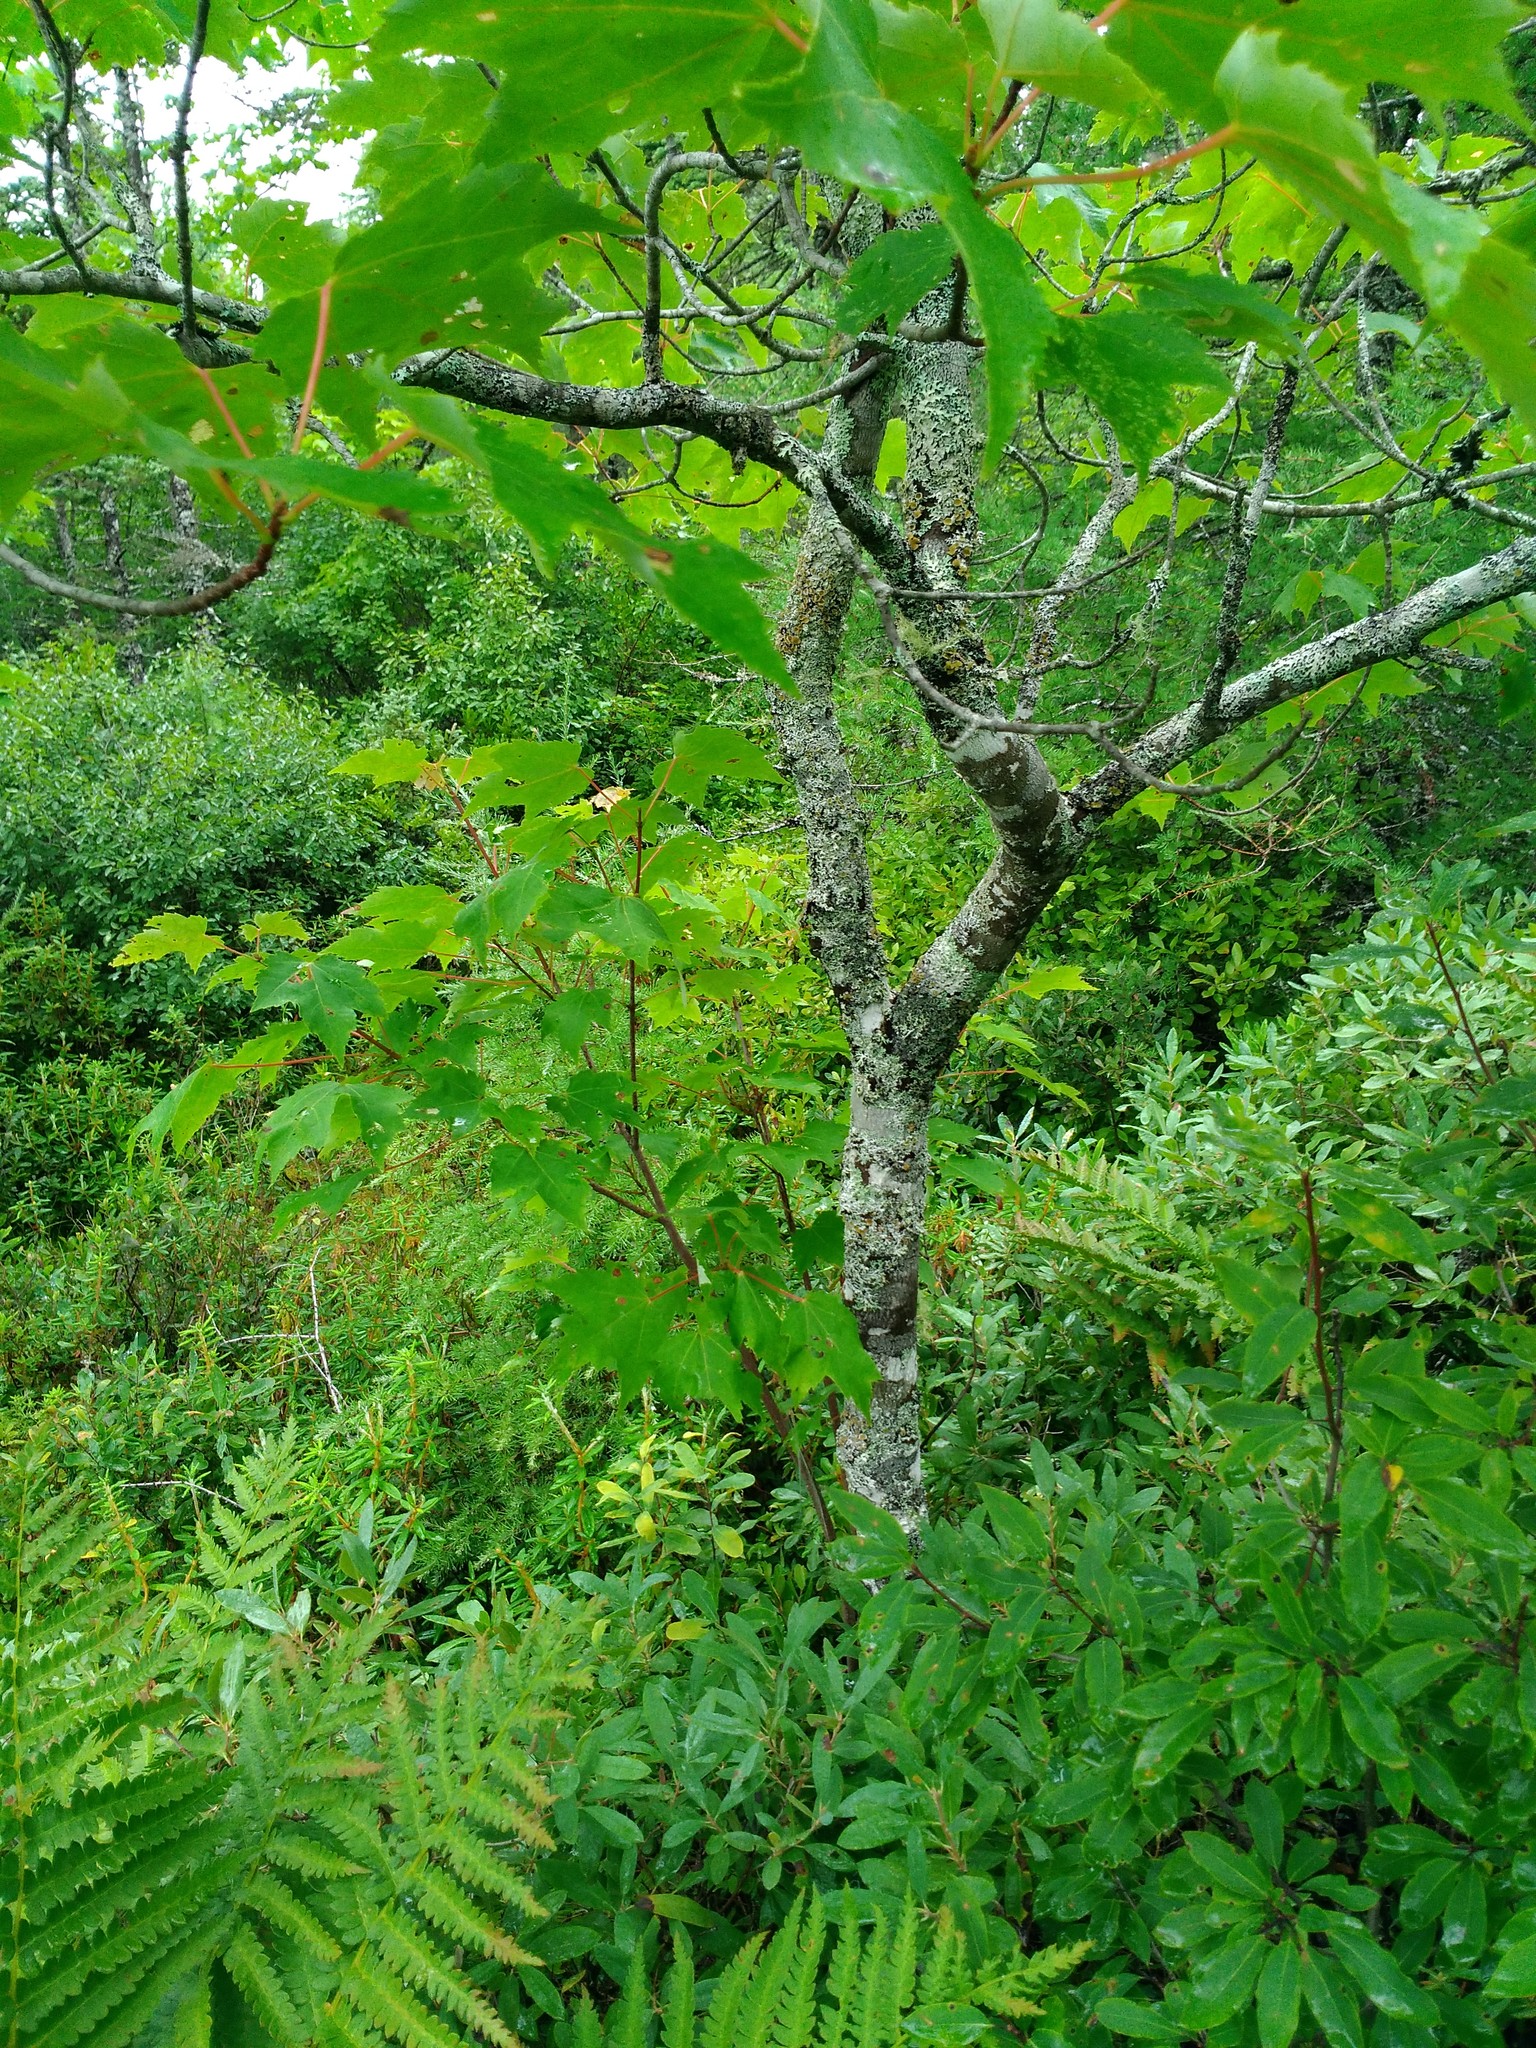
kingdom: Plantae
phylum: Tracheophyta
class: Magnoliopsida
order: Sapindales
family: Sapindaceae
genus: Acer
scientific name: Acer rubrum
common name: Red maple
